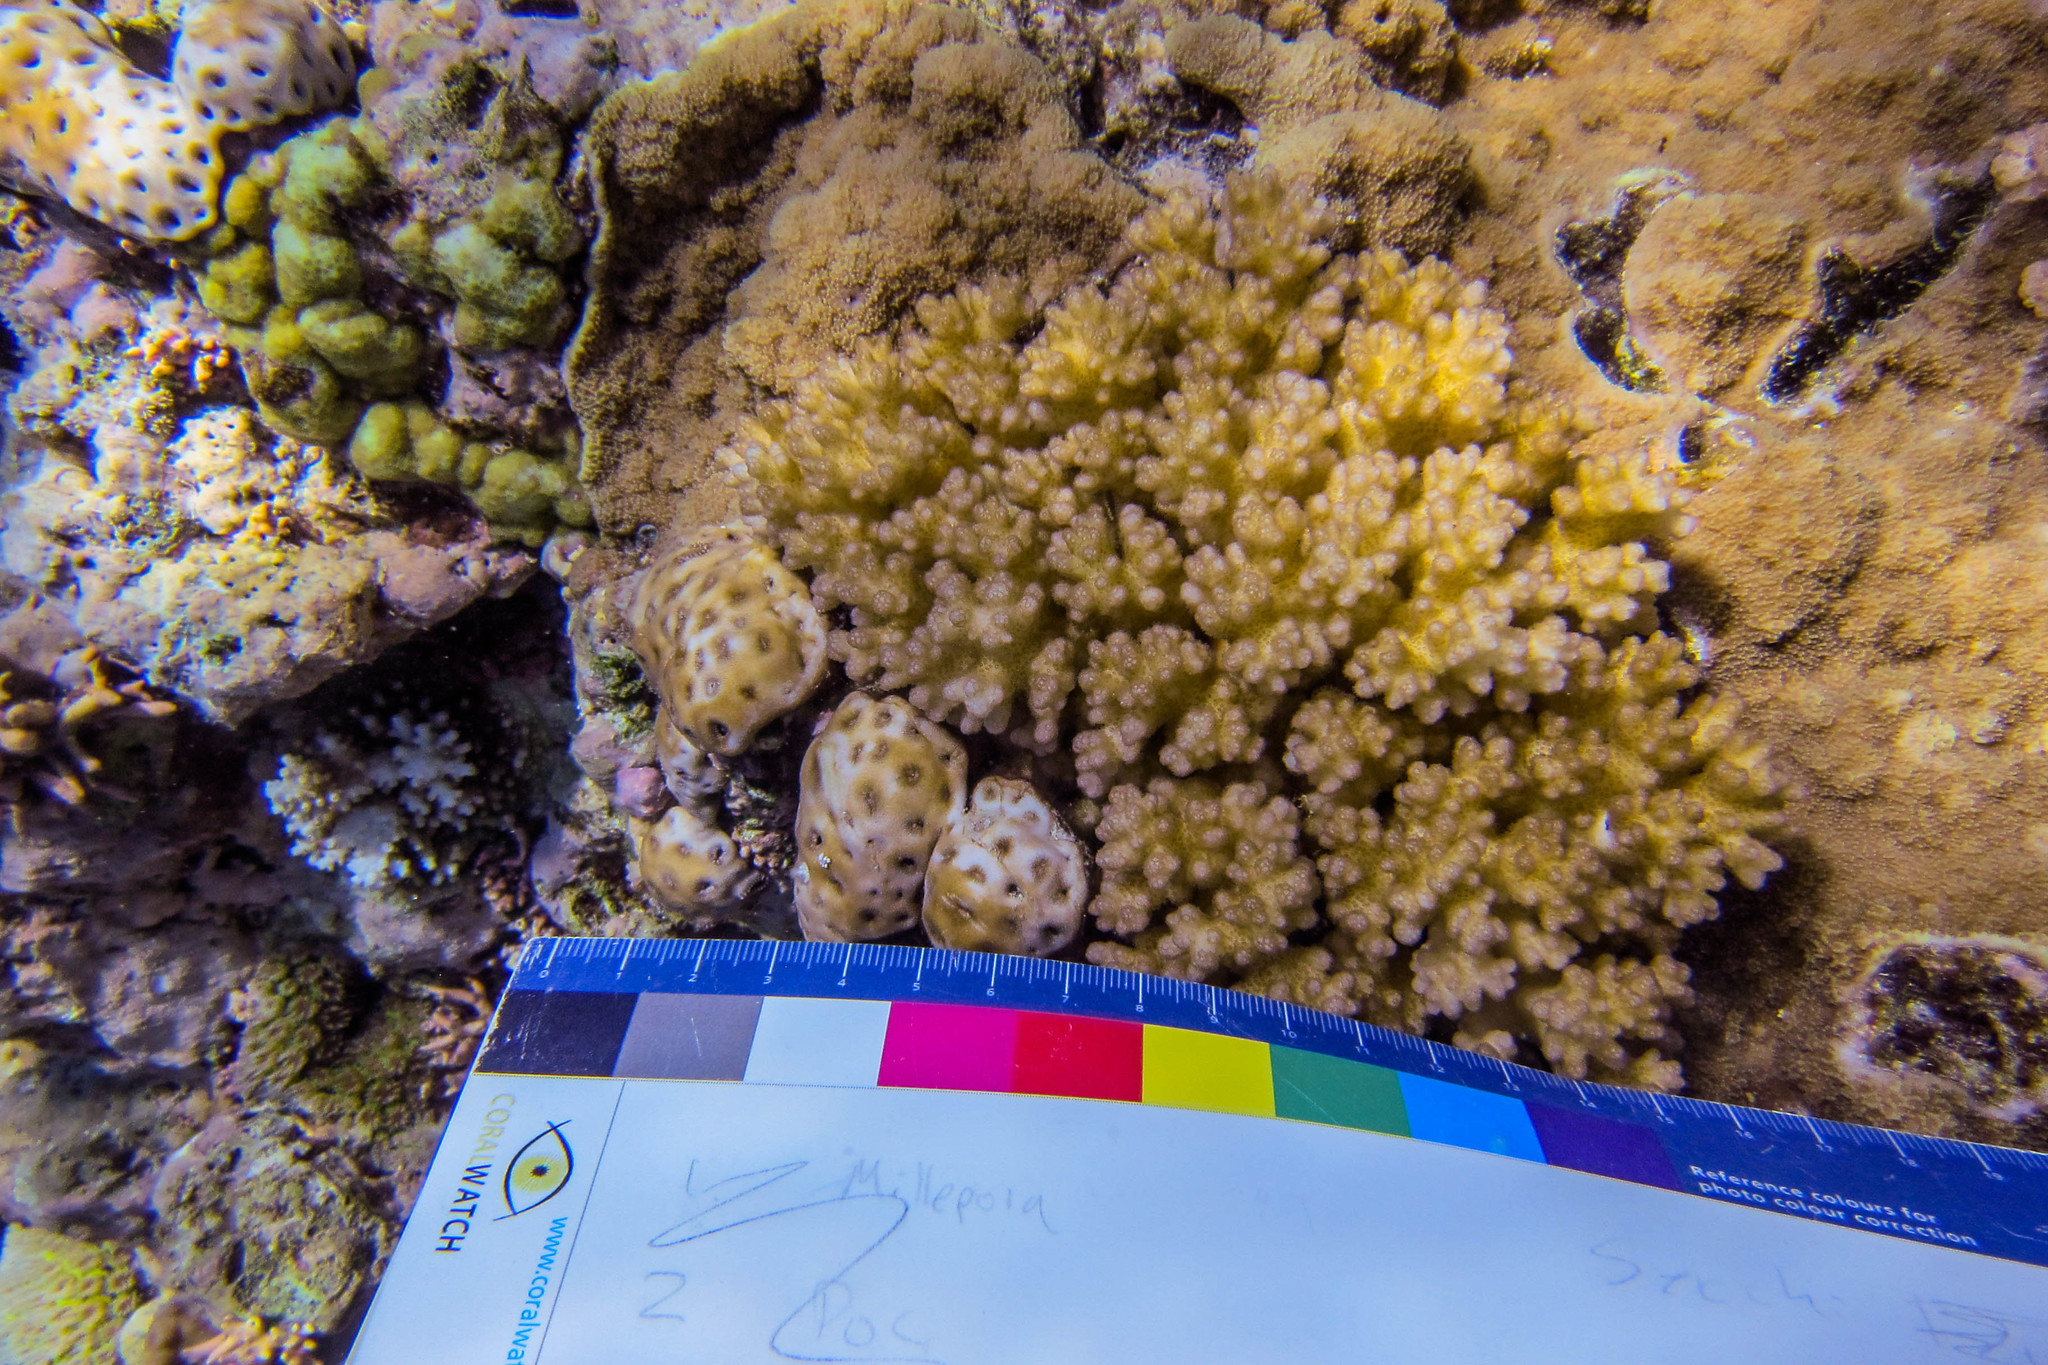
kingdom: Animalia
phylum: Cnidaria
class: Anthozoa
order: Zoantharia
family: Sphenopidae
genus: Palythoa
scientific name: Palythoa tuberculosa
